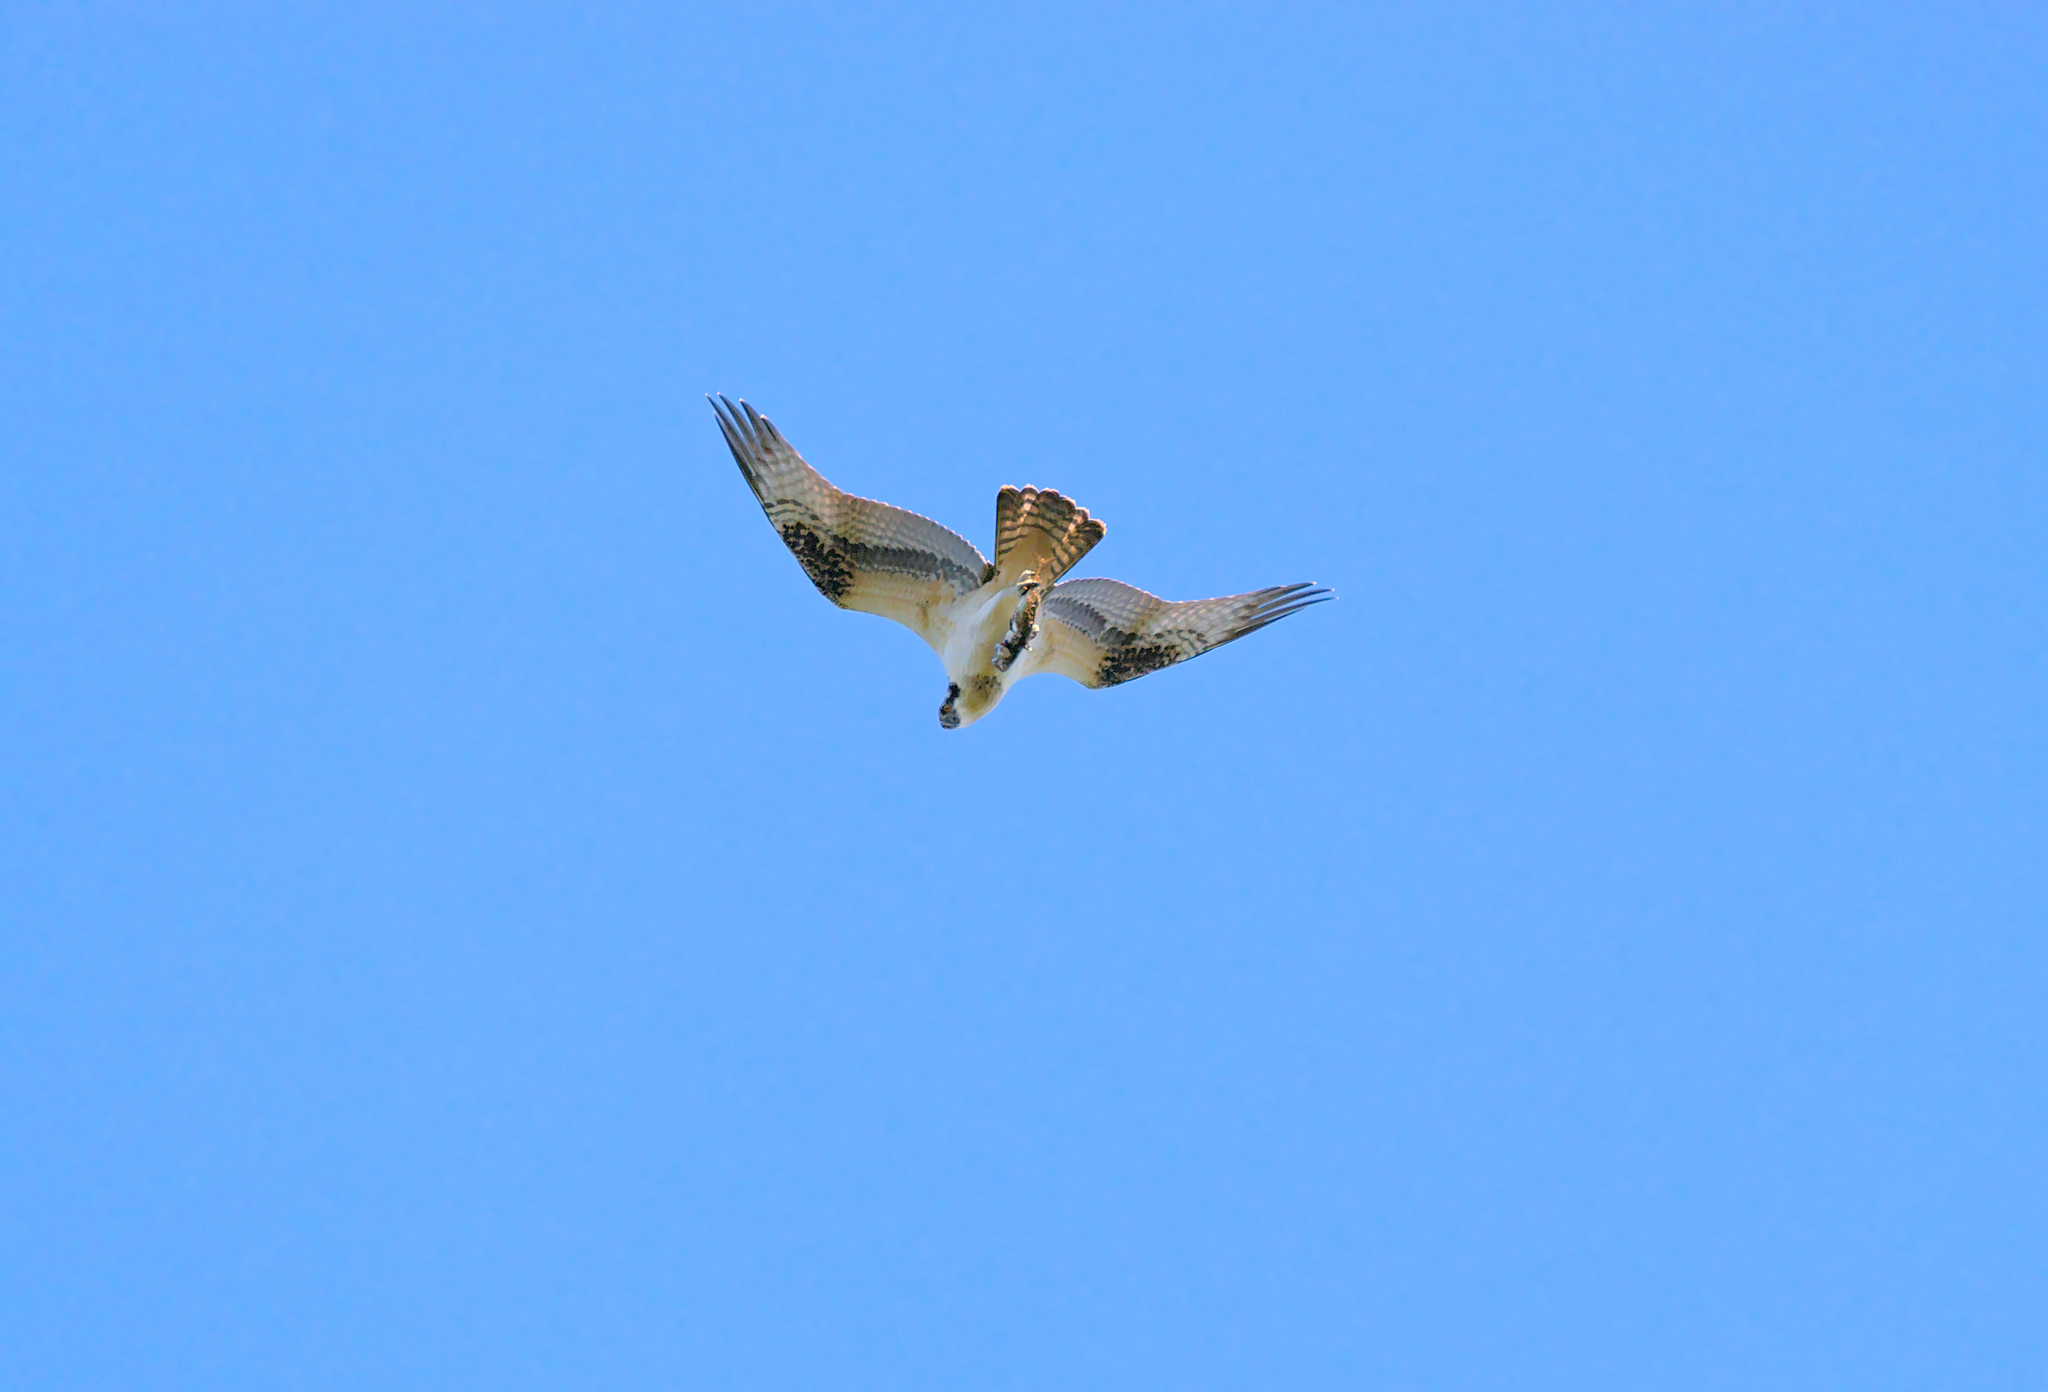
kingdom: Animalia
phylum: Chordata
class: Aves
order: Accipitriformes
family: Pandionidae
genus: Pandion
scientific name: Pandion haliaetus
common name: Osprey
